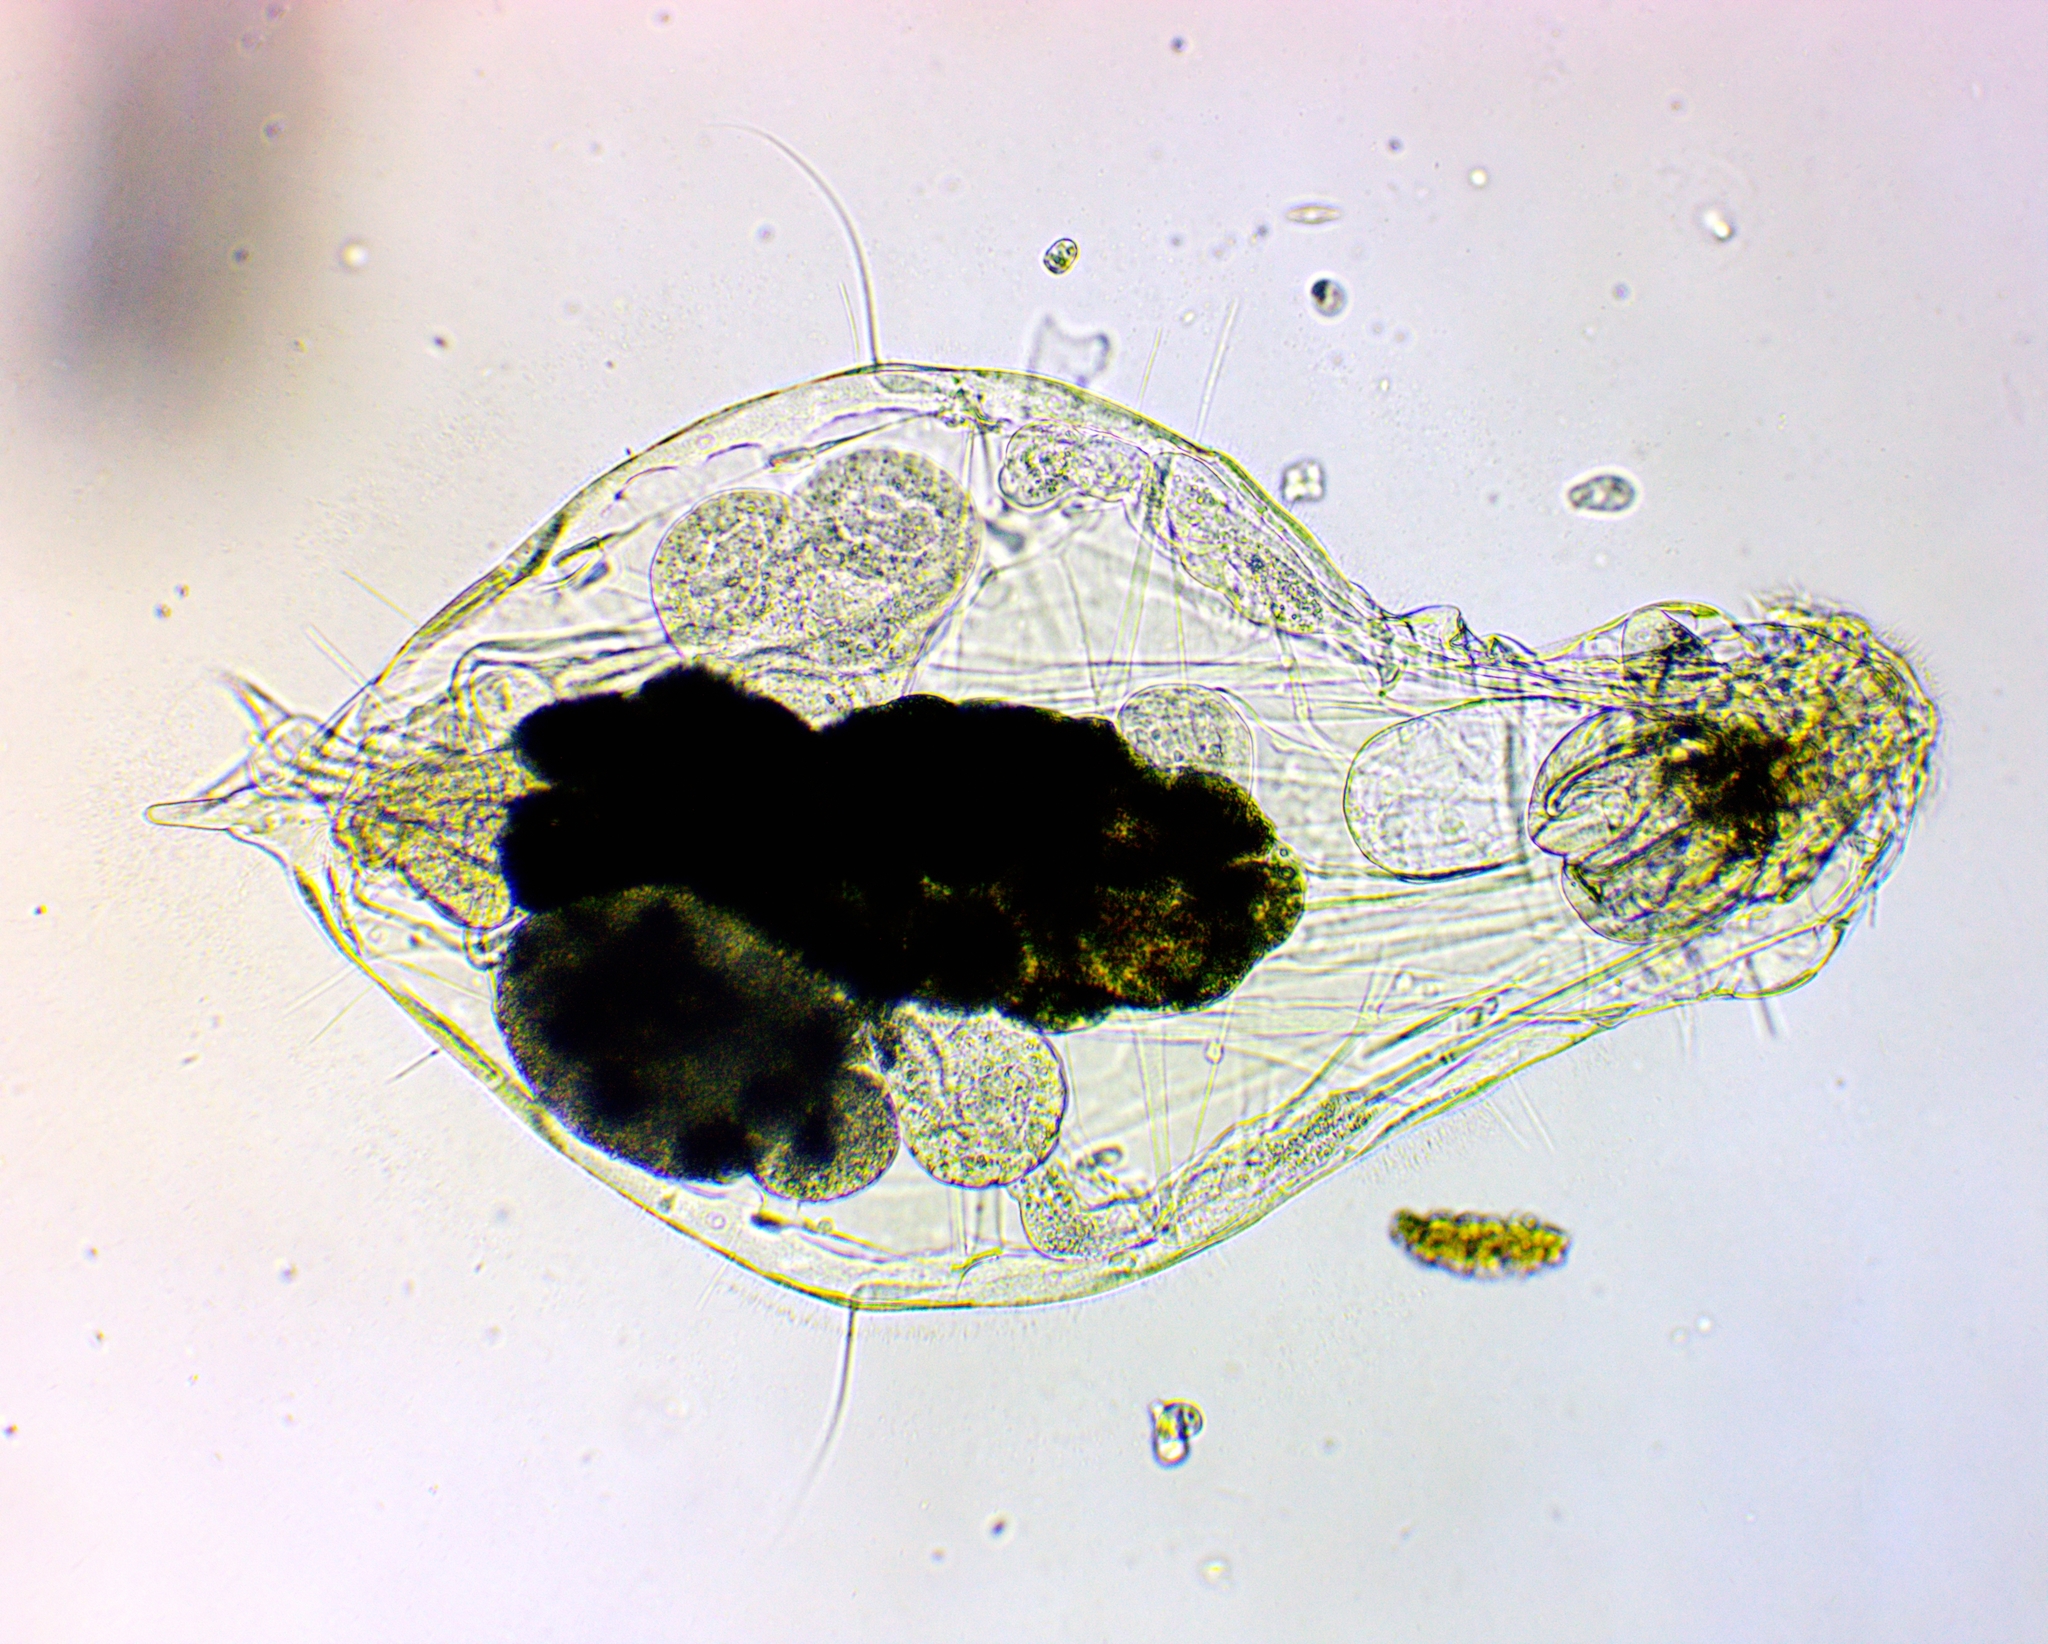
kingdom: Animalia
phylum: Rotifera
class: Eurotatoria
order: Ploima
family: Notommatidae
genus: Notommata
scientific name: Notommata copeus
